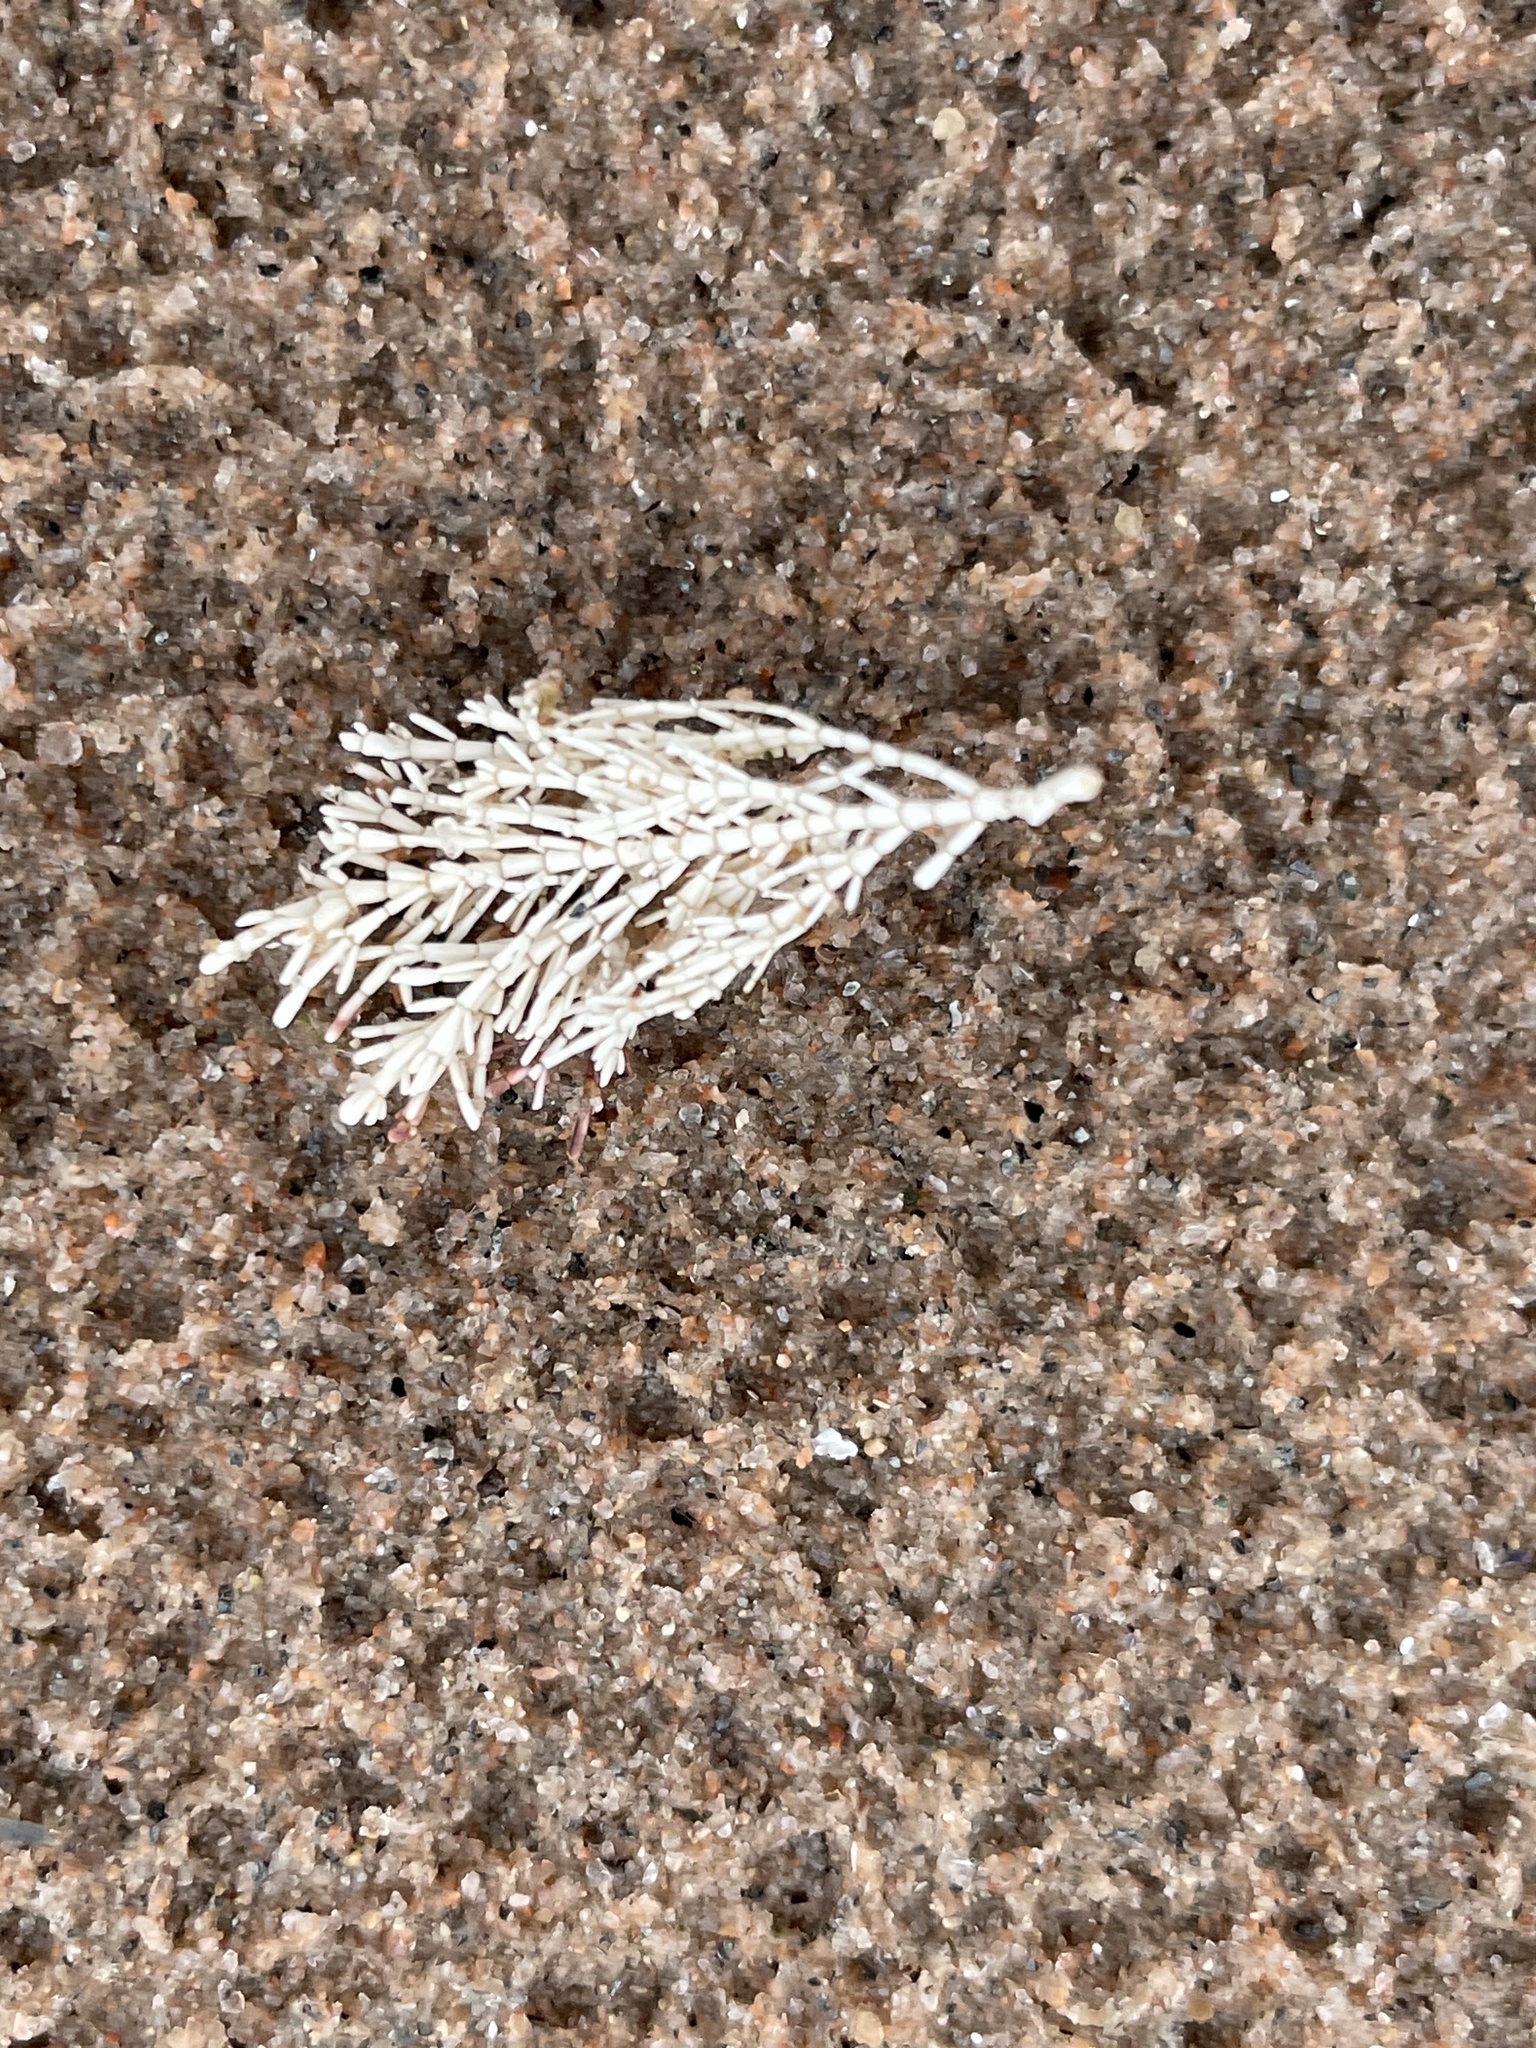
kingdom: Plantae
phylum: Rhodophyta
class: Florideophyceae
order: Corallinales
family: Corallinaceae
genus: Corallina
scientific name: Corallina officinalis
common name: Coral weed
